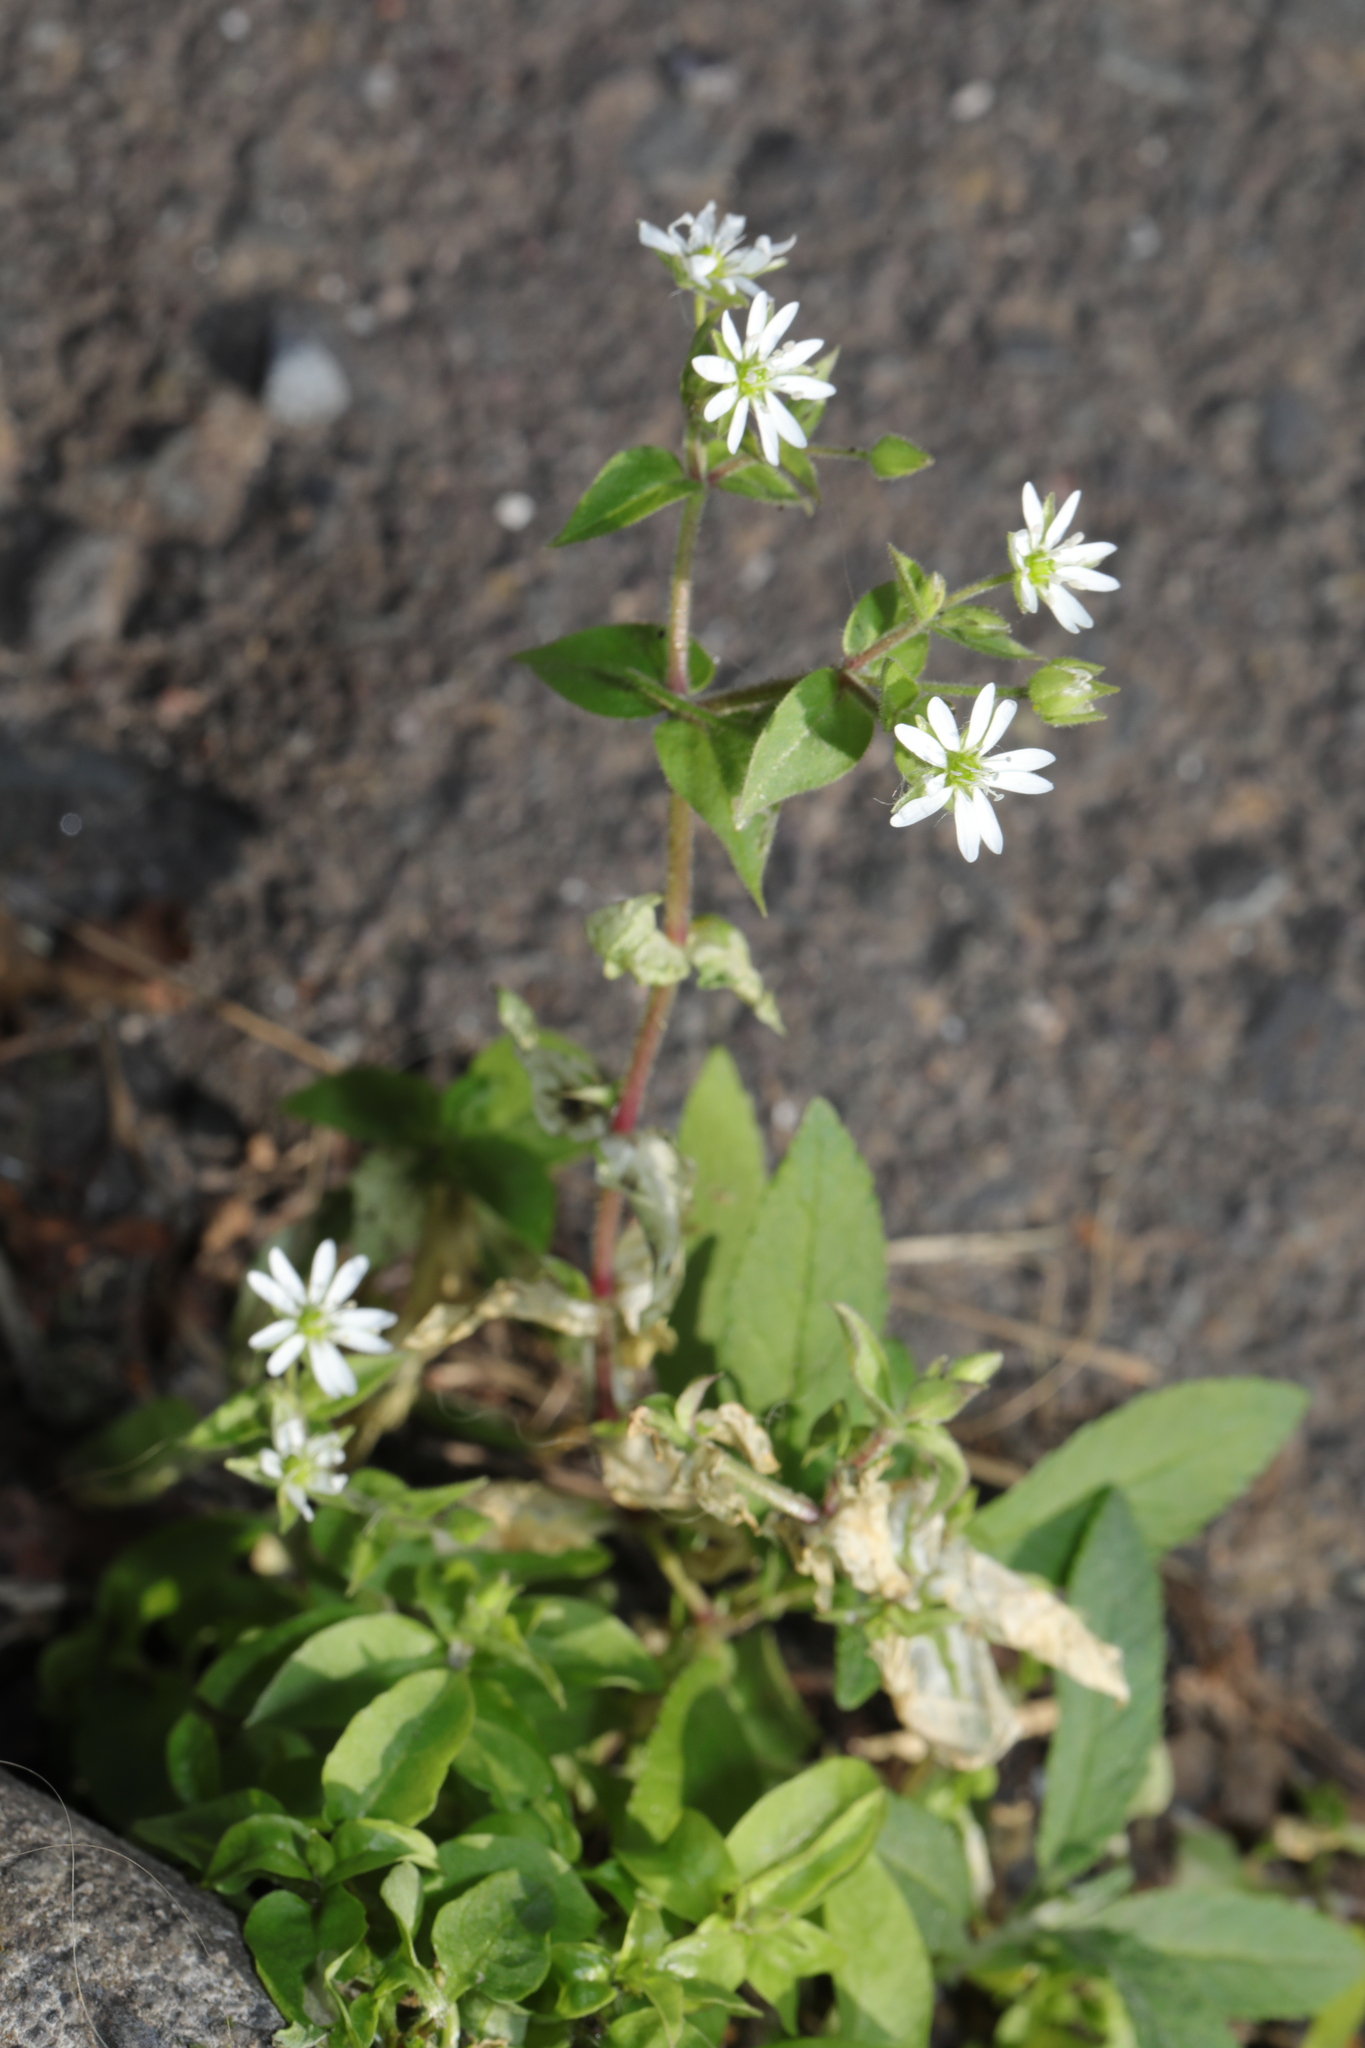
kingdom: Plantae
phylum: Tracheophyta
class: Magnoliopsida
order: Caryophyllales
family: Caryophyllaceae
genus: Stellaria
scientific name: Stellaria aquatica
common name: Water chickweed
